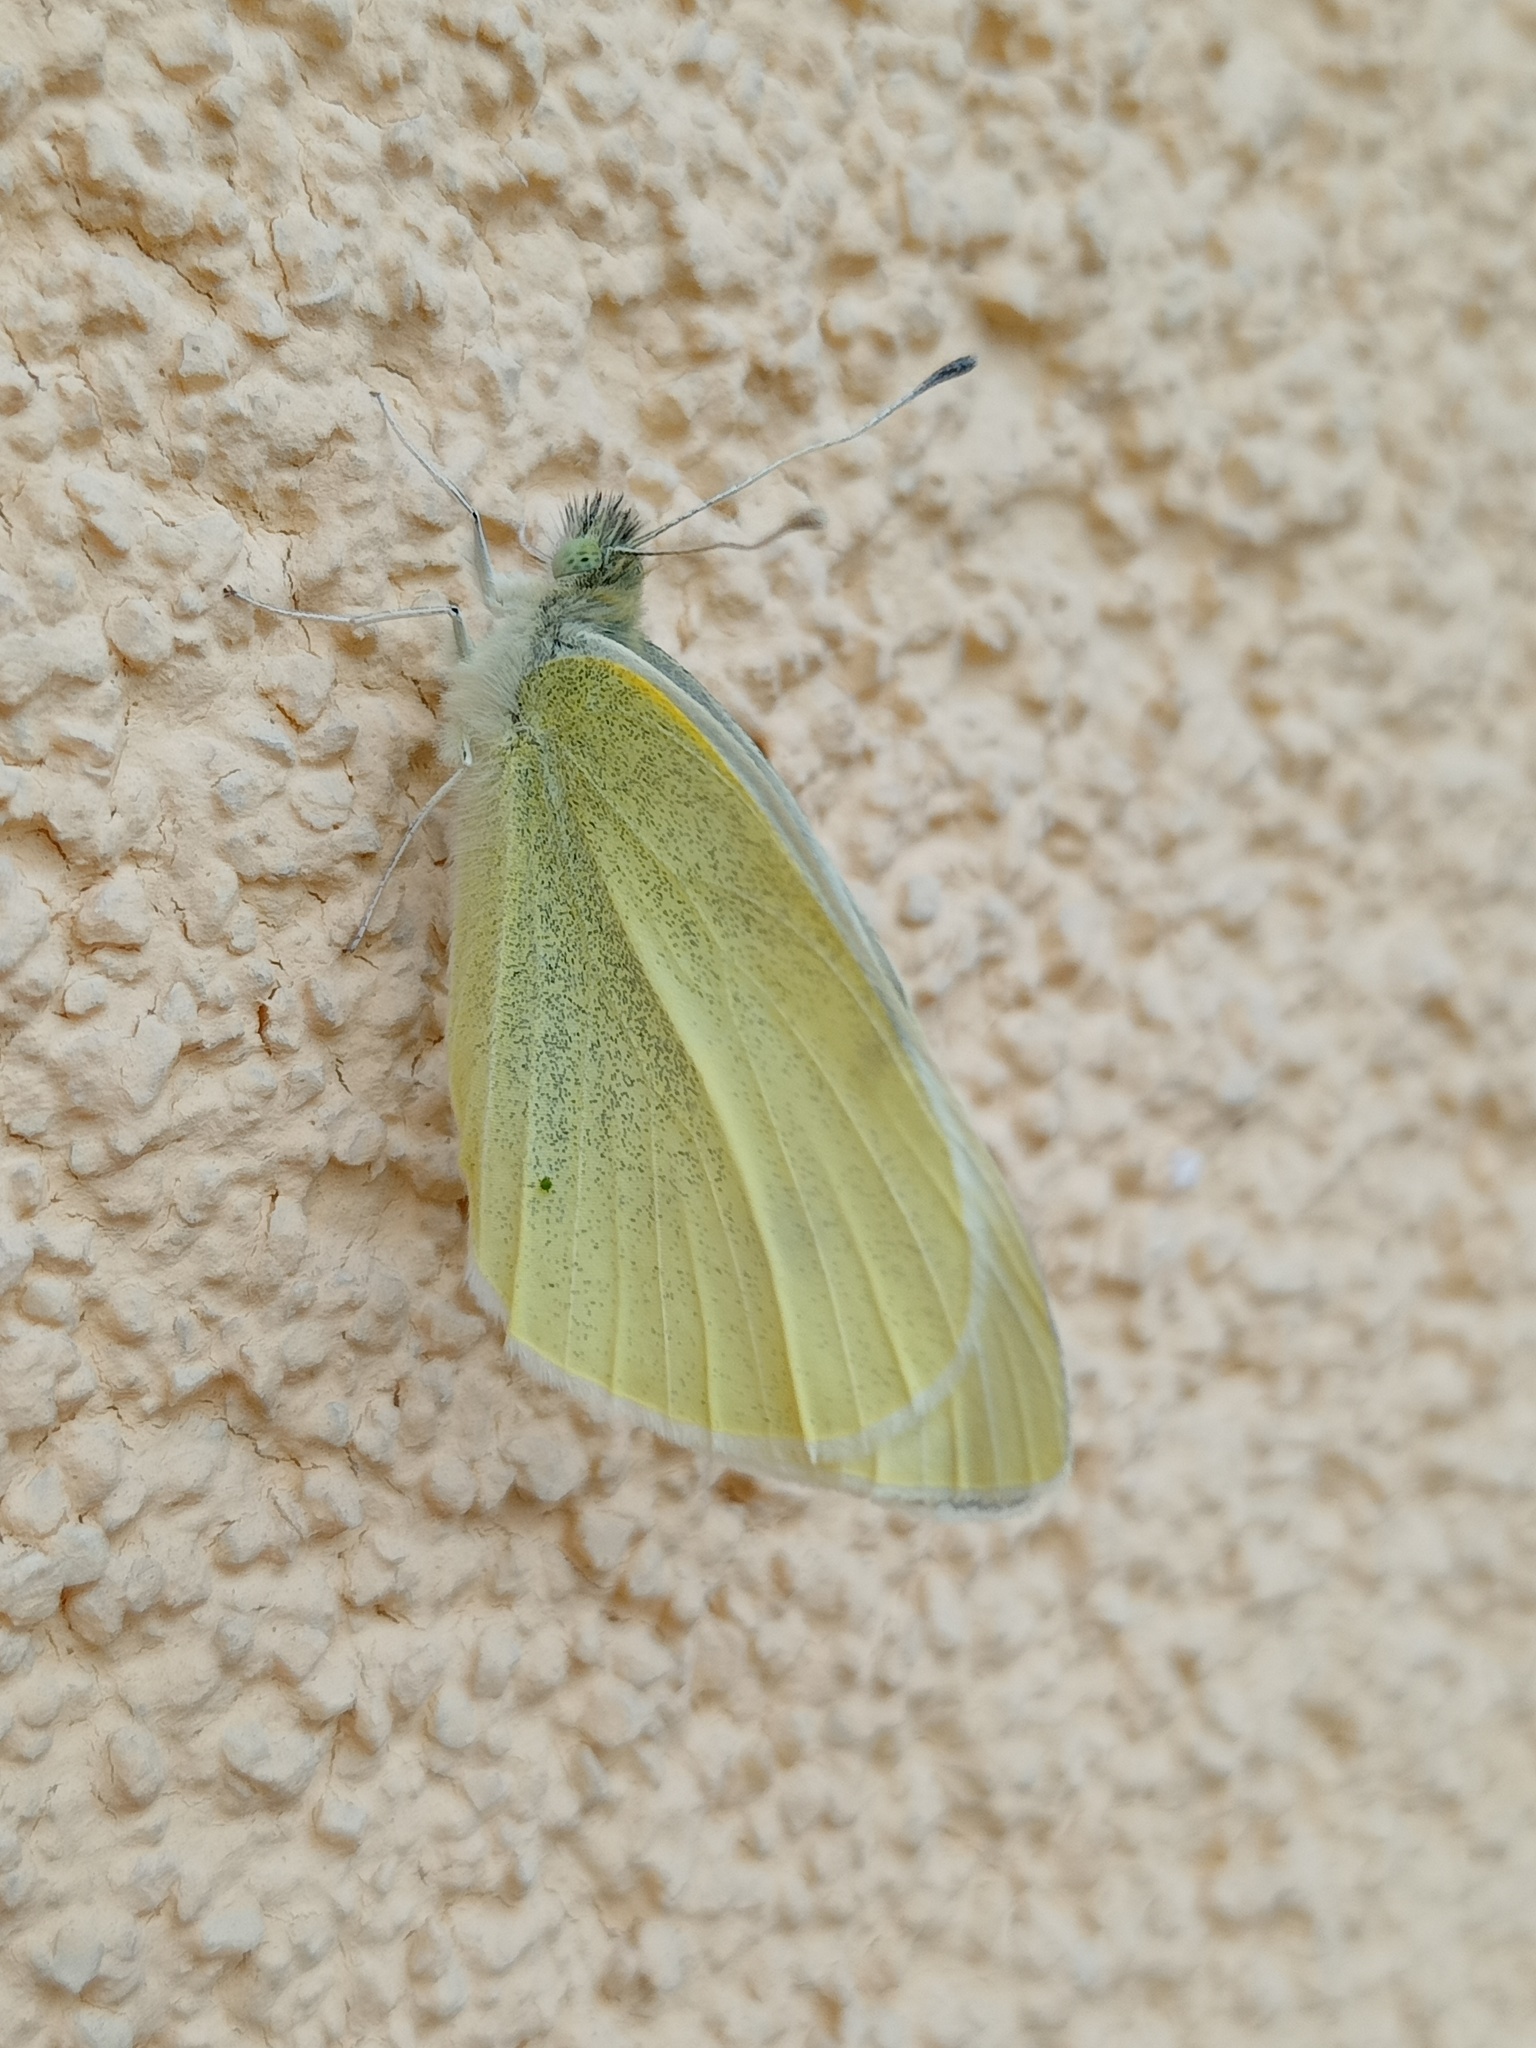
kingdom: Animalia
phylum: Arthropoda
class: Insecta
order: Lepidoptera
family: Pieridae
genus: Pieris
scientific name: Pieris rapae
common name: Small white
